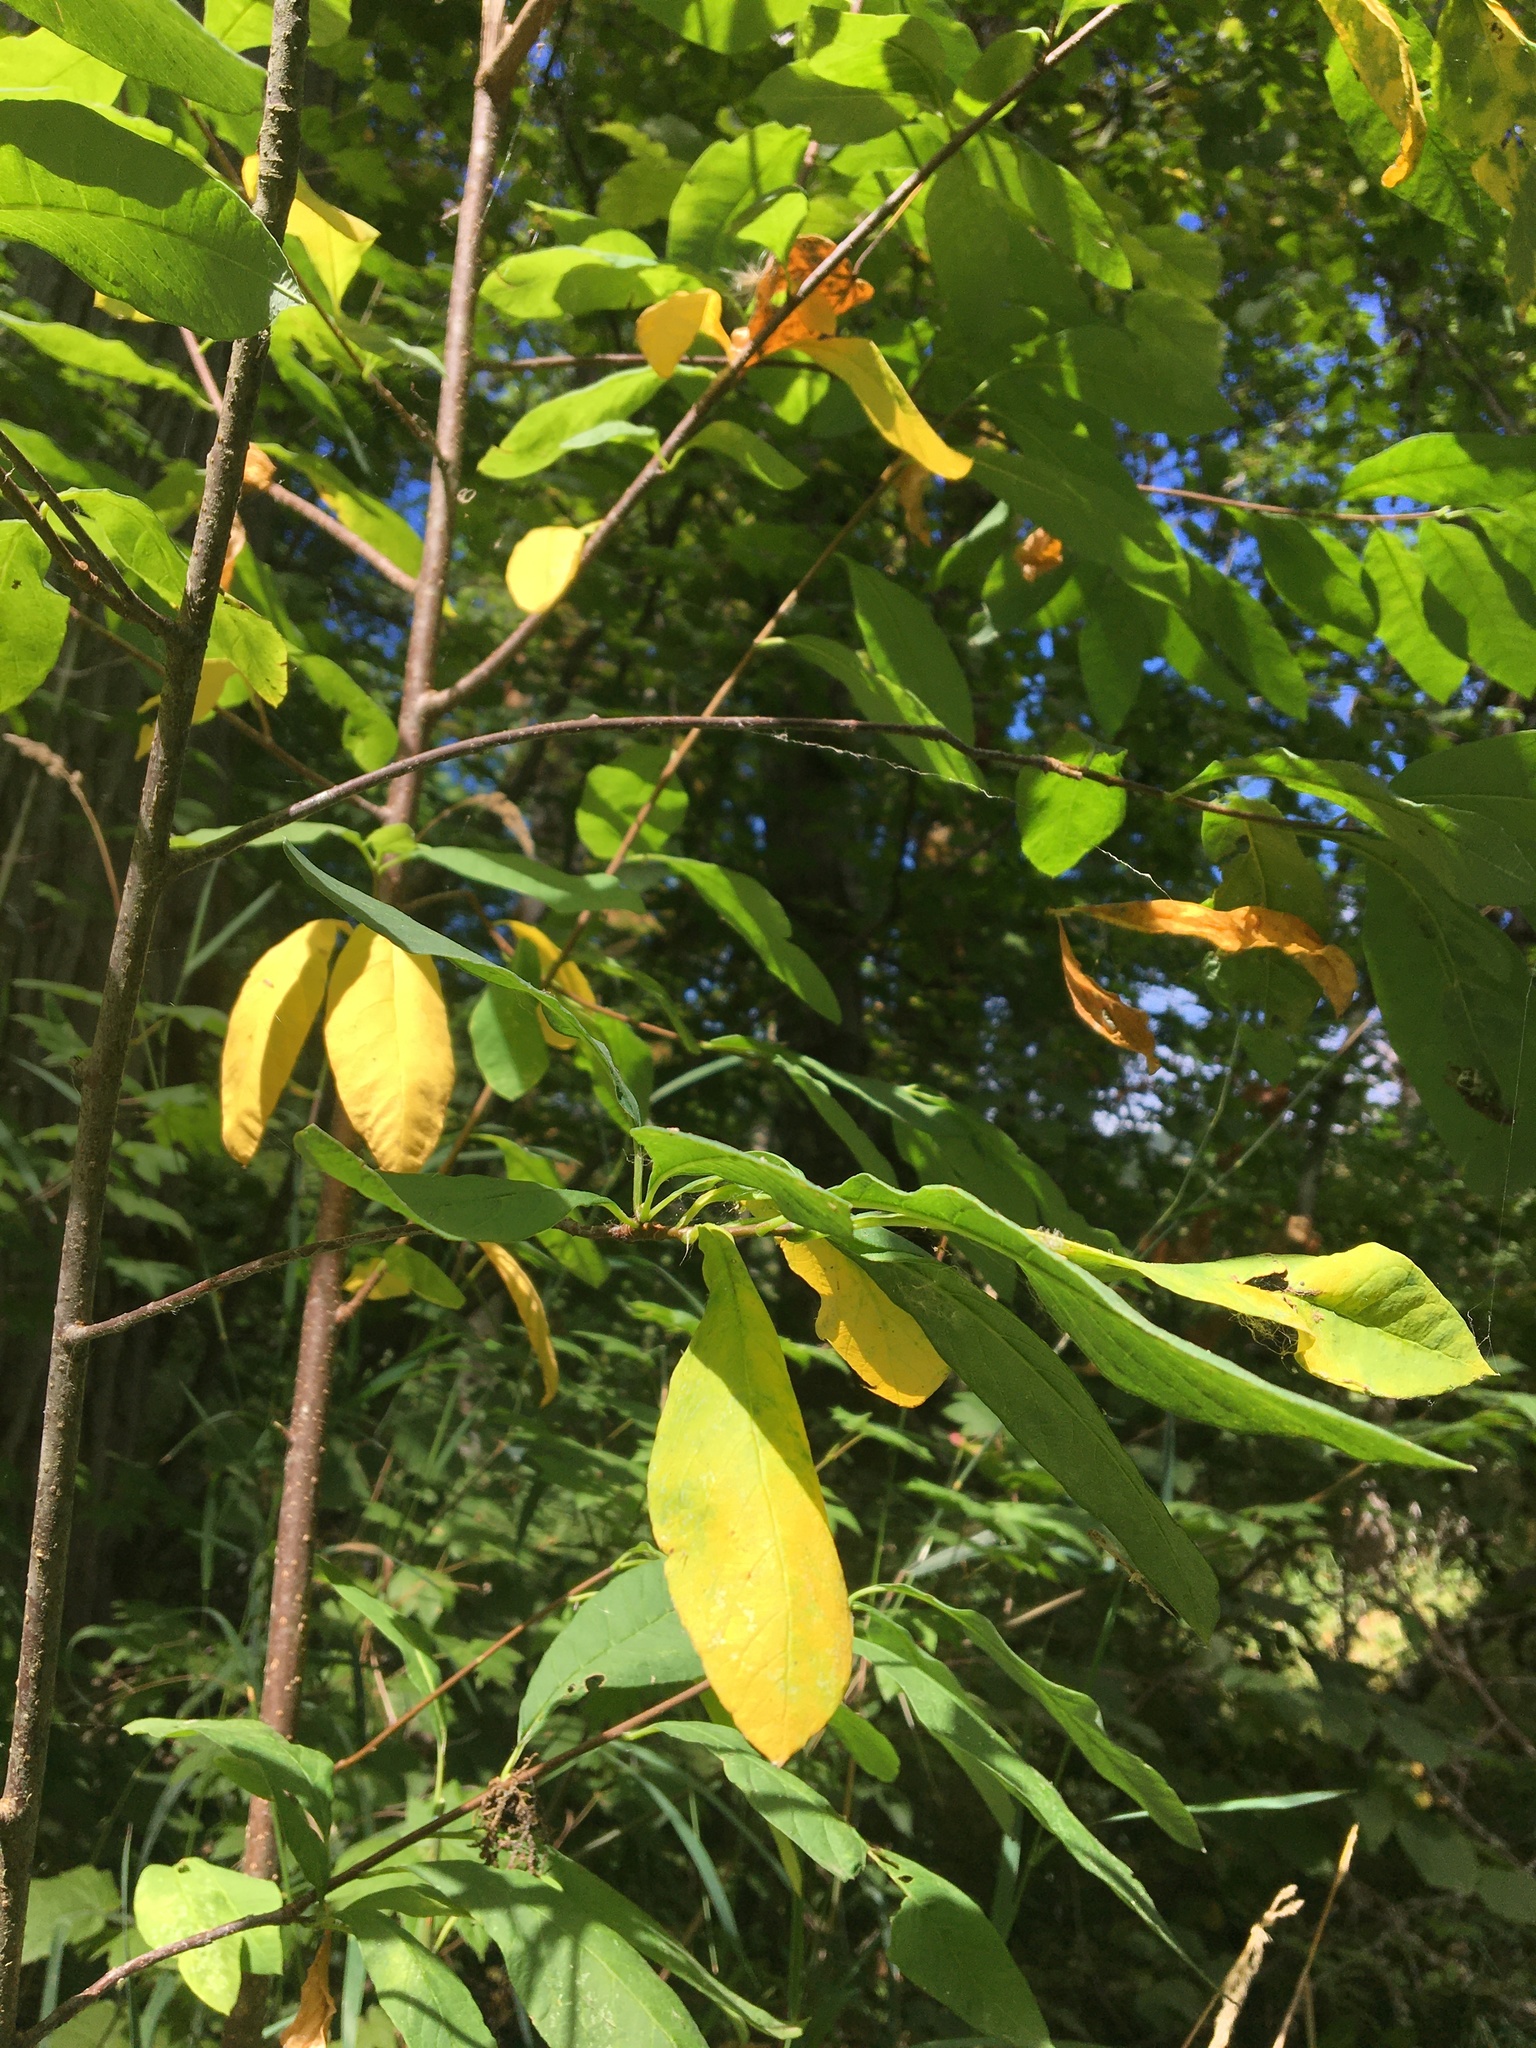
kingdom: Plantae
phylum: Tracheophyta
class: Magnoliopsida
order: Rosales
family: Rosaceae
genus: Oemleria
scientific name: Oemleria cerasiformis
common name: Osoberry
